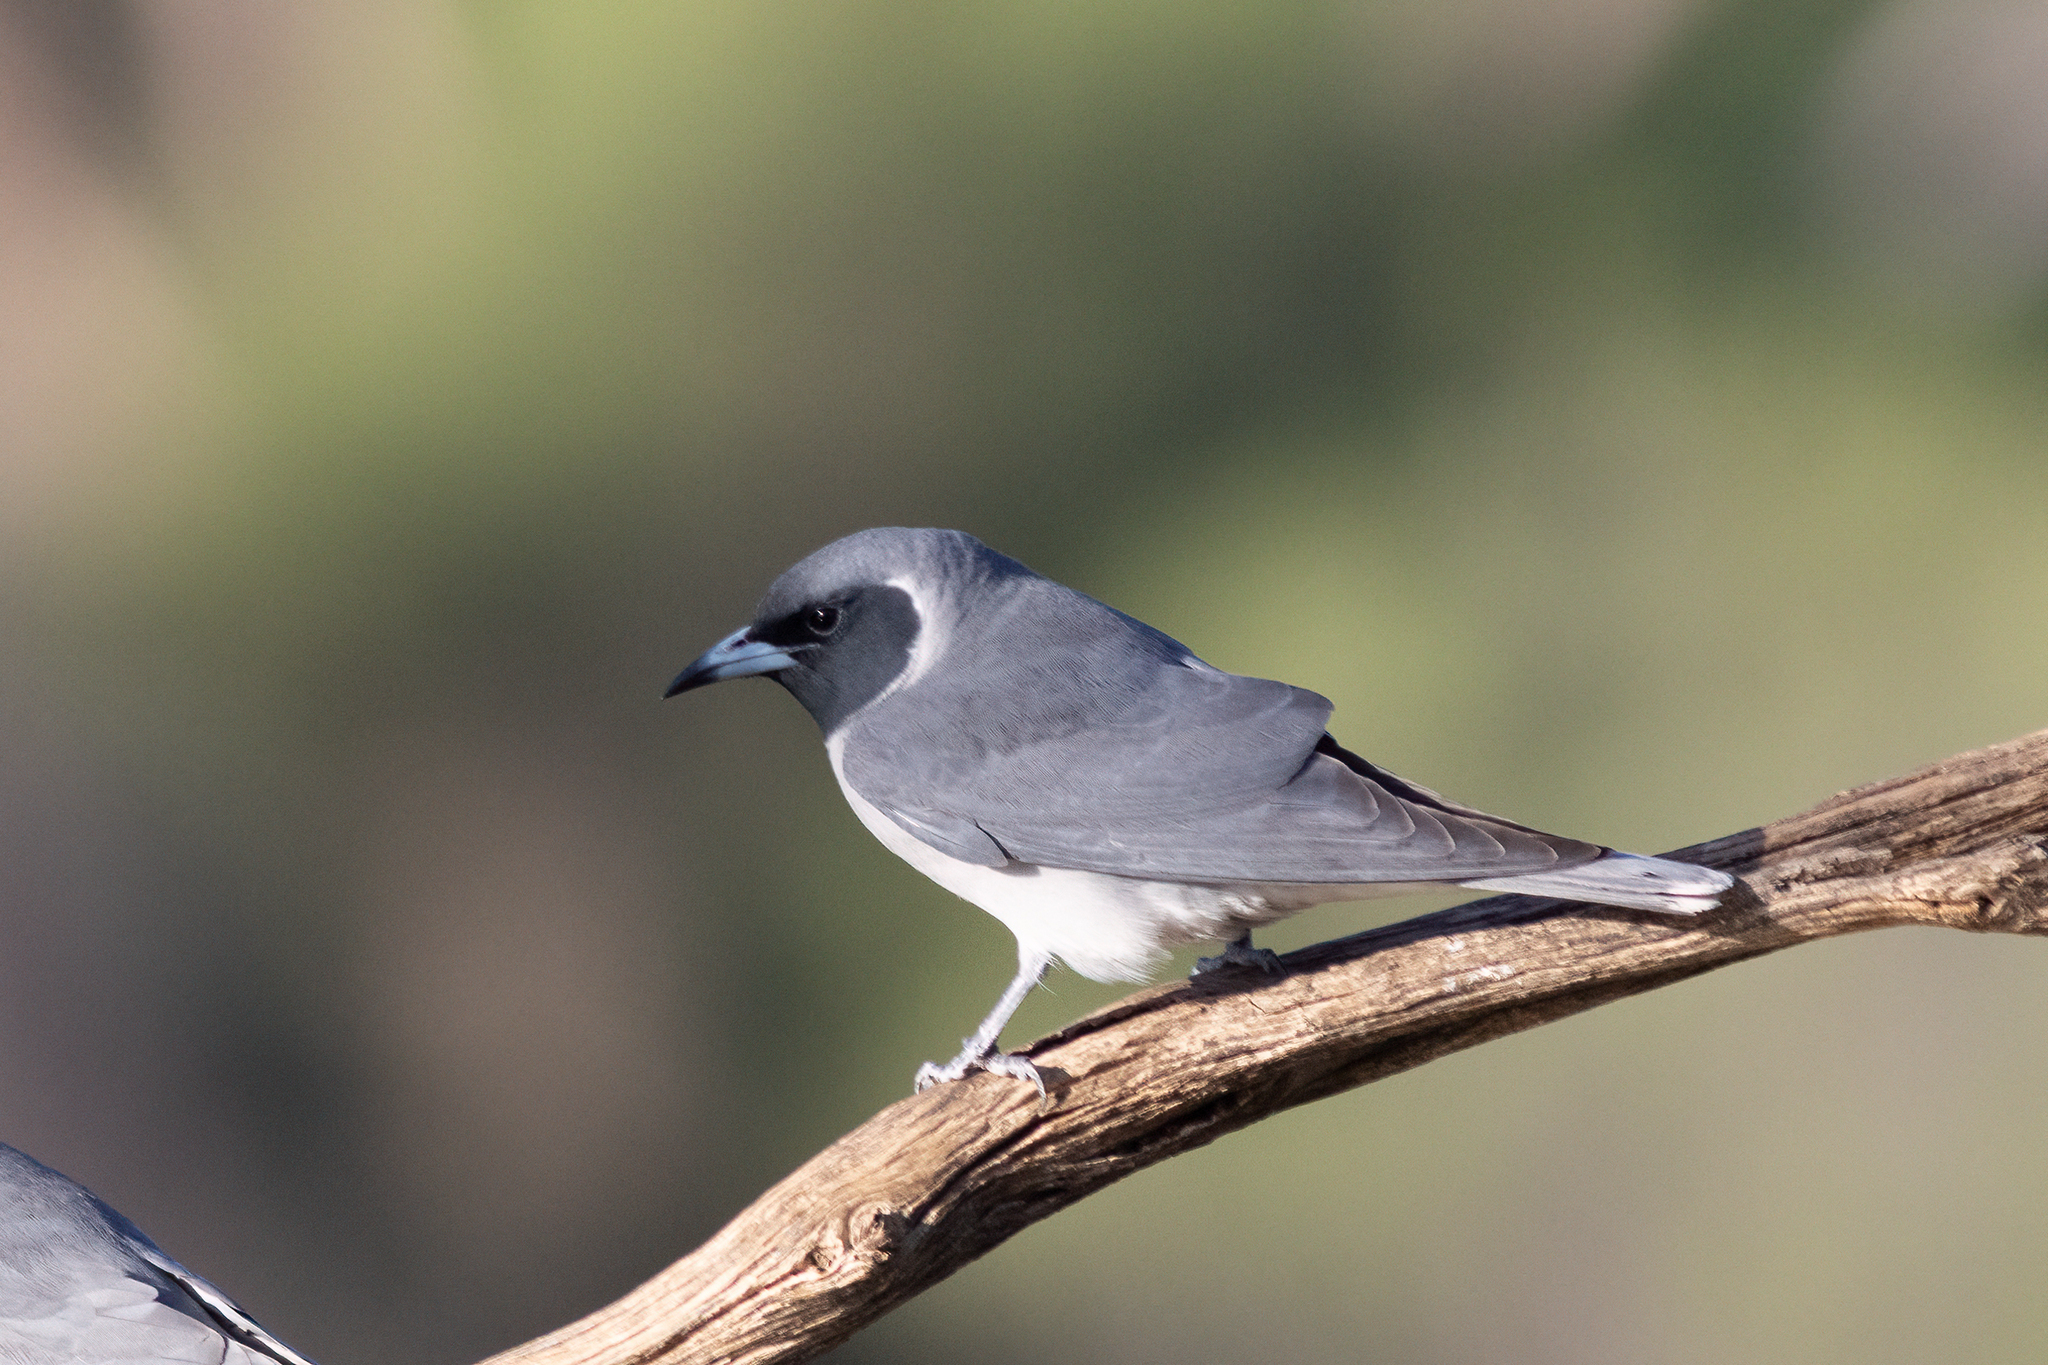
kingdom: Animalia
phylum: Chordata
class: Aves
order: Passeriformes
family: Artamidae
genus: Artamus
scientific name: Artamus personatus
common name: Masked woodswallow
